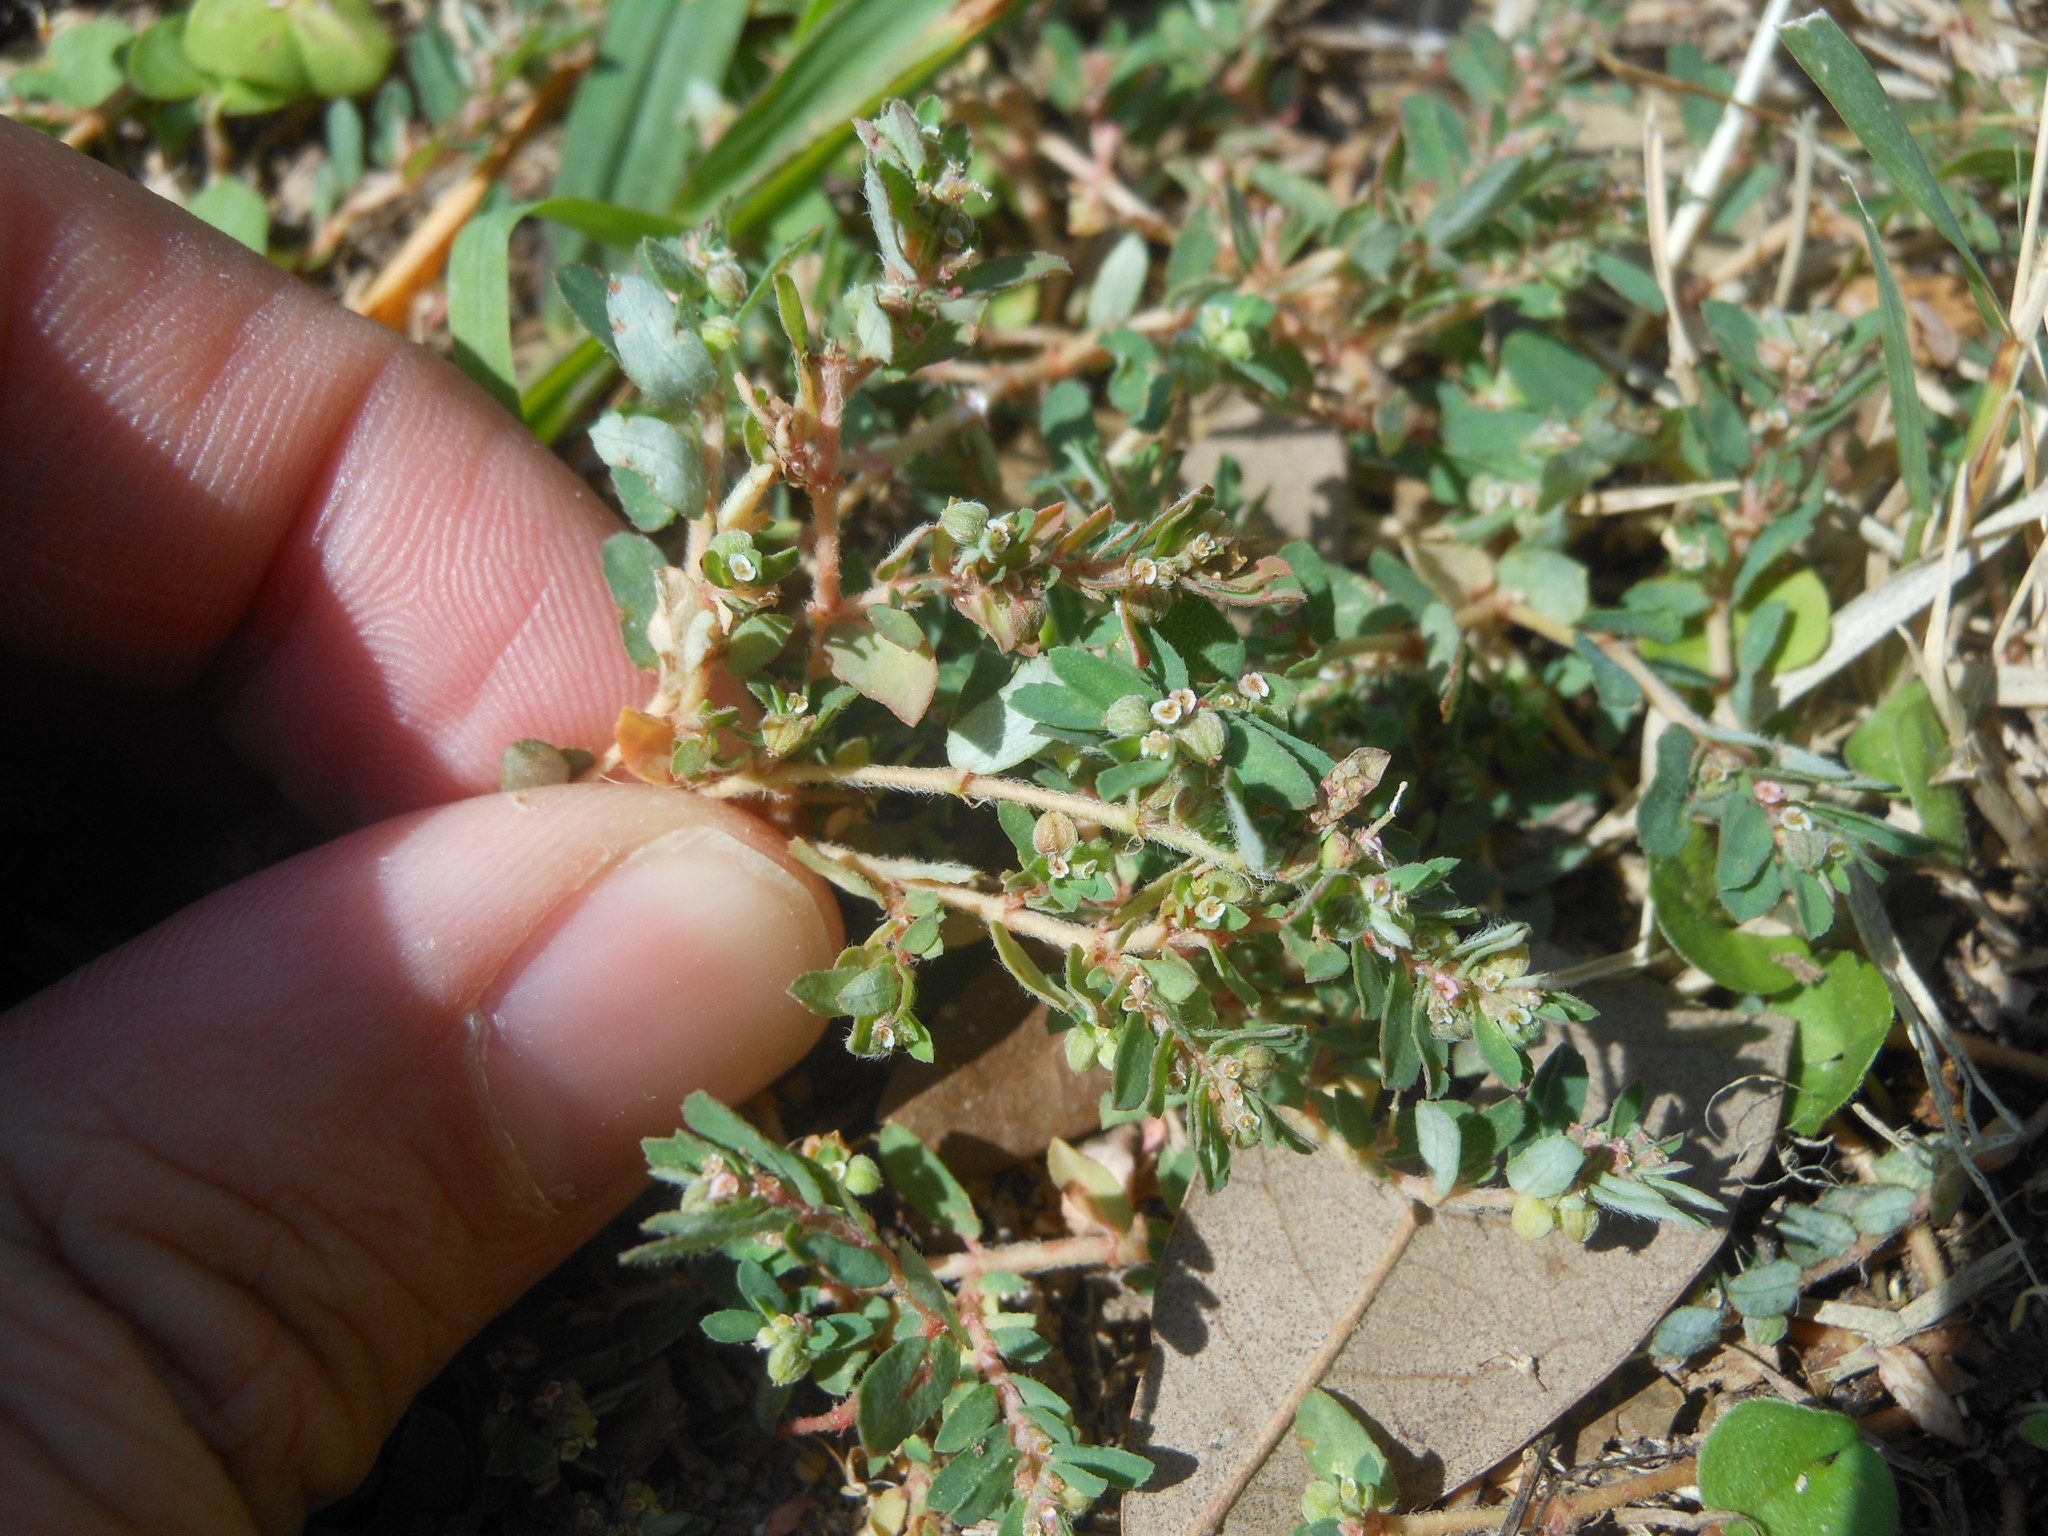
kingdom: Plantae
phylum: Tracheophyta
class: Magnoliopsida
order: Malpighiales
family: Euphorbiaceae
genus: Euphorbia
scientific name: Euphorbia maculata
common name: Spotted spurge
